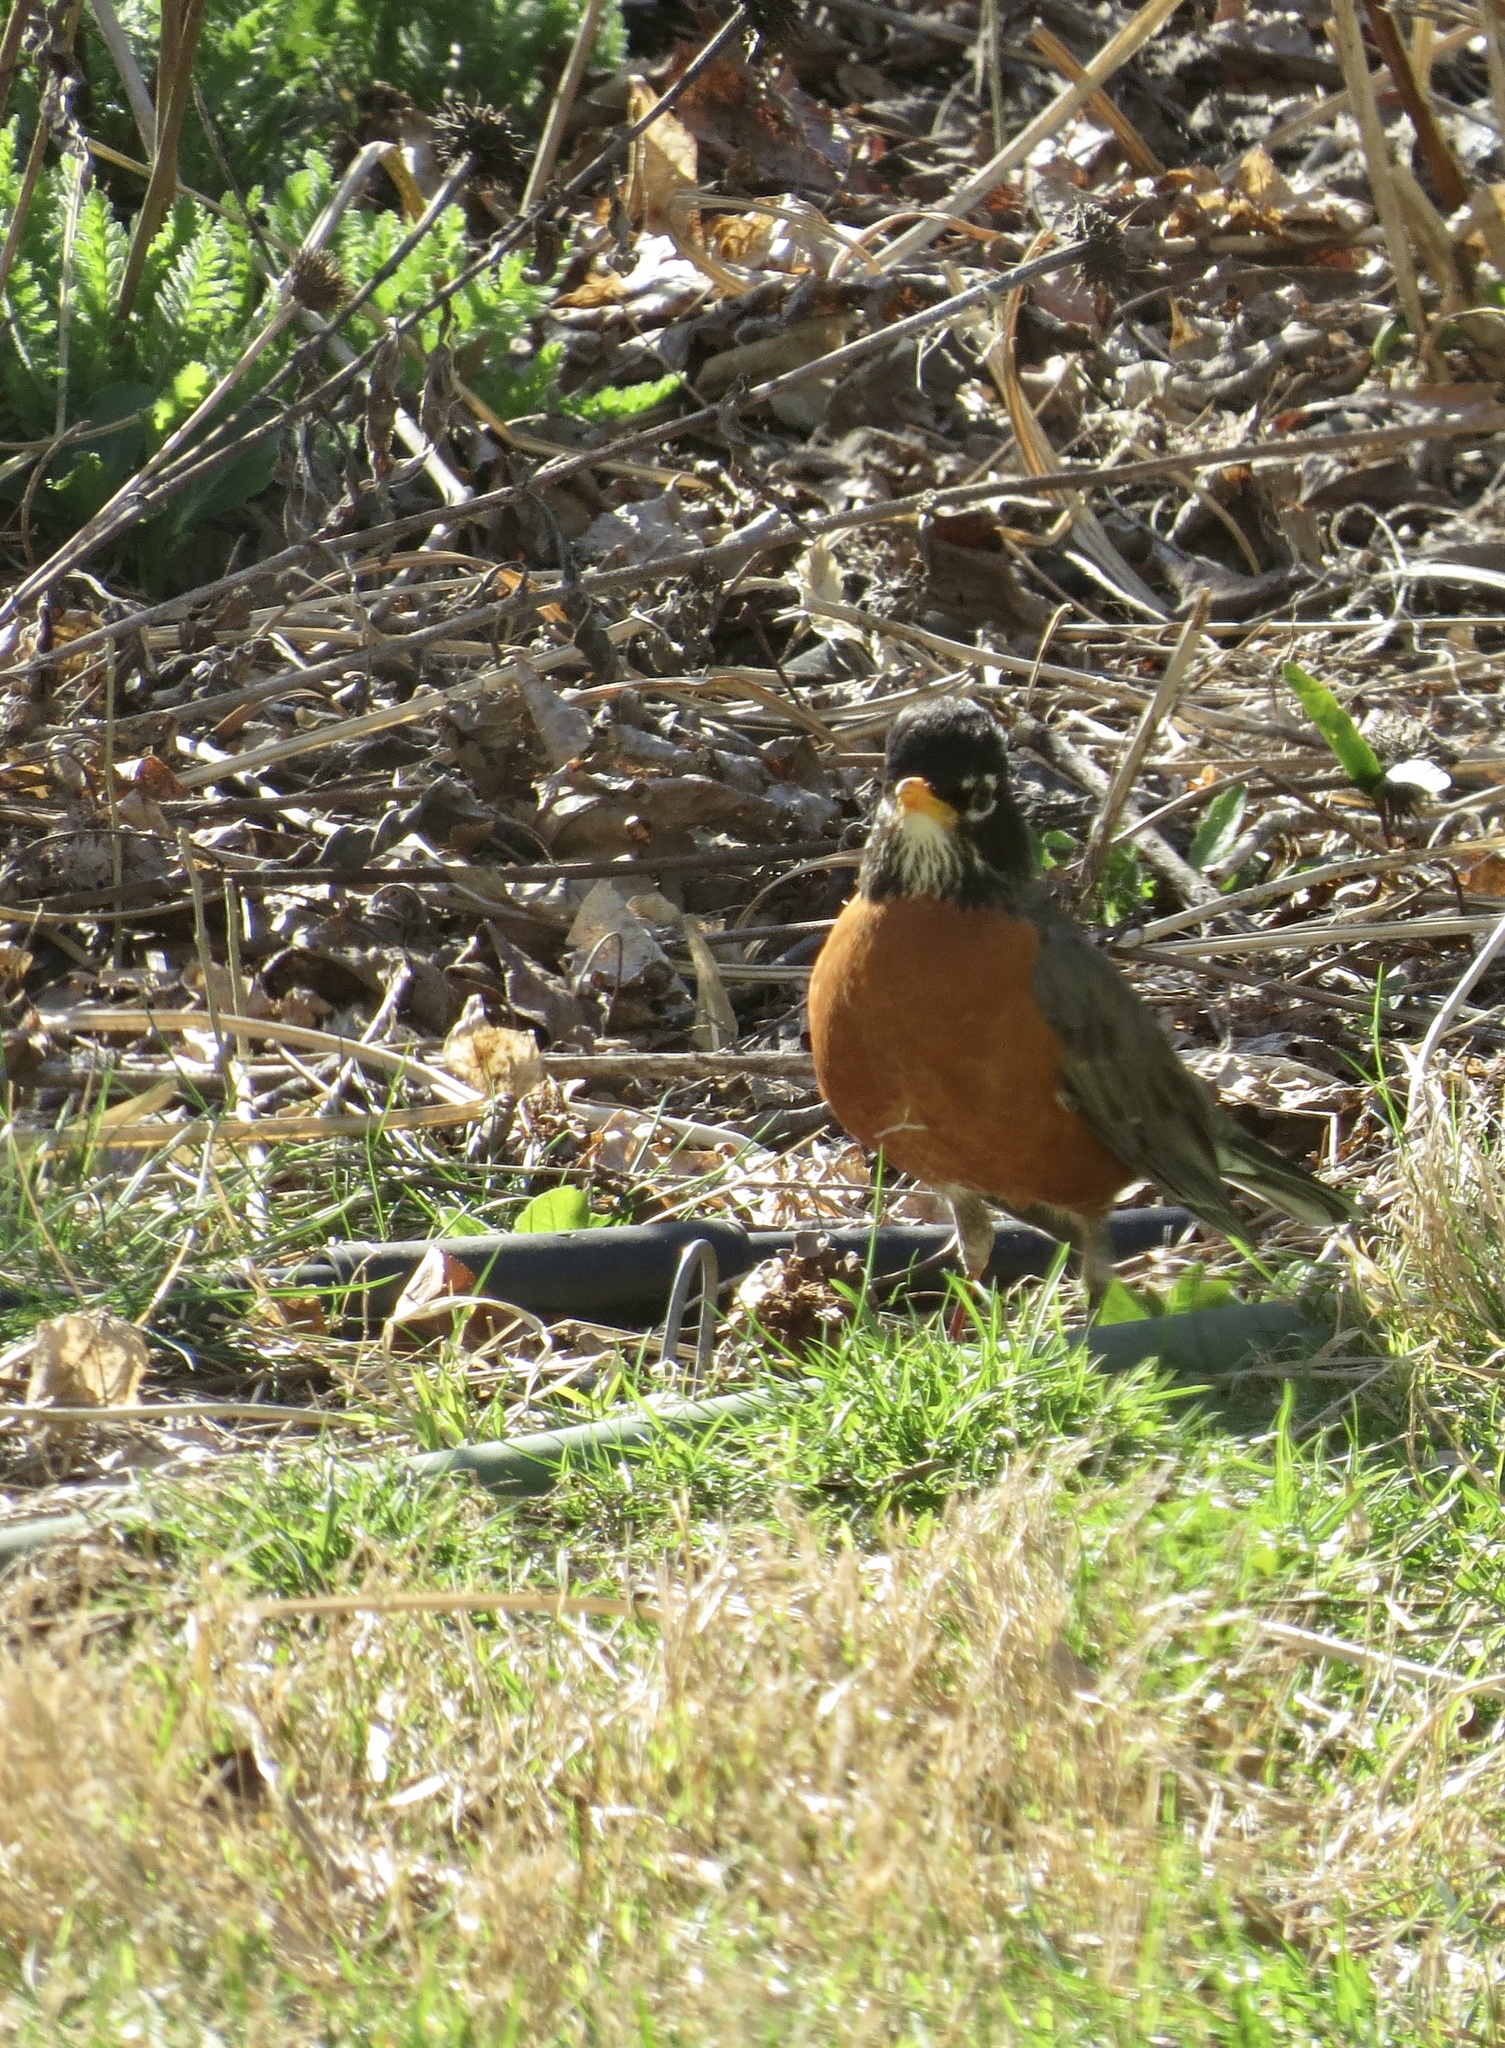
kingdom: Animalia
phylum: Chordata
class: Aves
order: Passeriformes
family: Turdidae
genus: Turdus
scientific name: Turdus migratorius
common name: American robin
